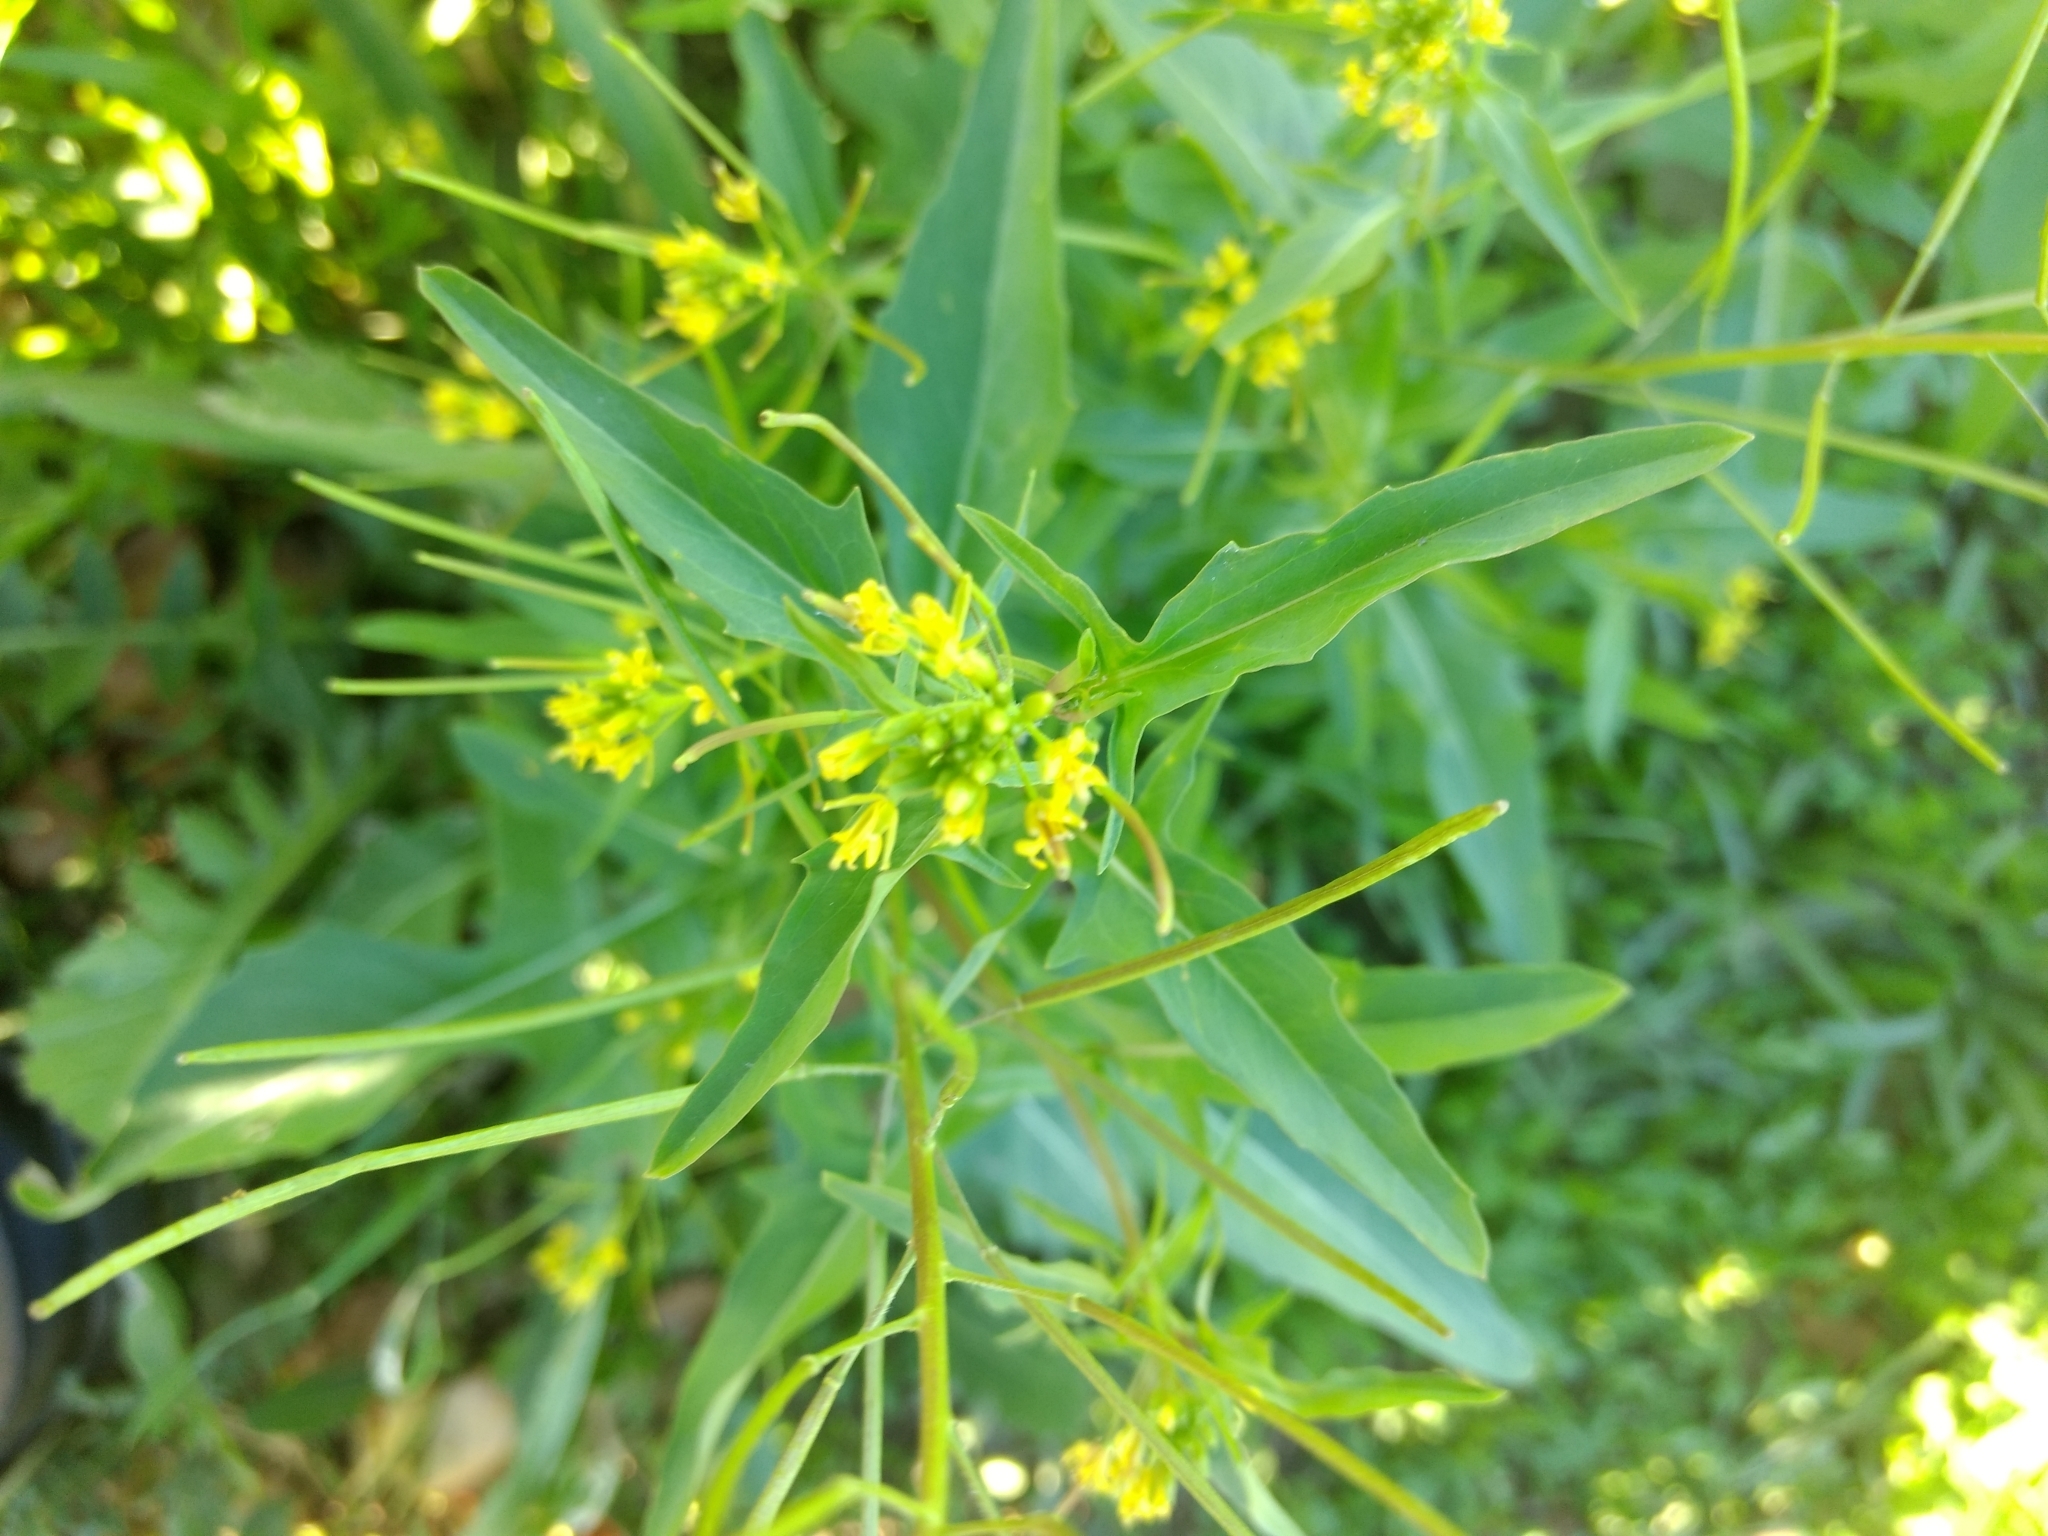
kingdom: Plantae
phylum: Tracheophyta
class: Magnoliopsida
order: Brassicales
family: Brassicaceae
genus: Sisymbrium
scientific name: Sisymbrium irio
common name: London rocket
